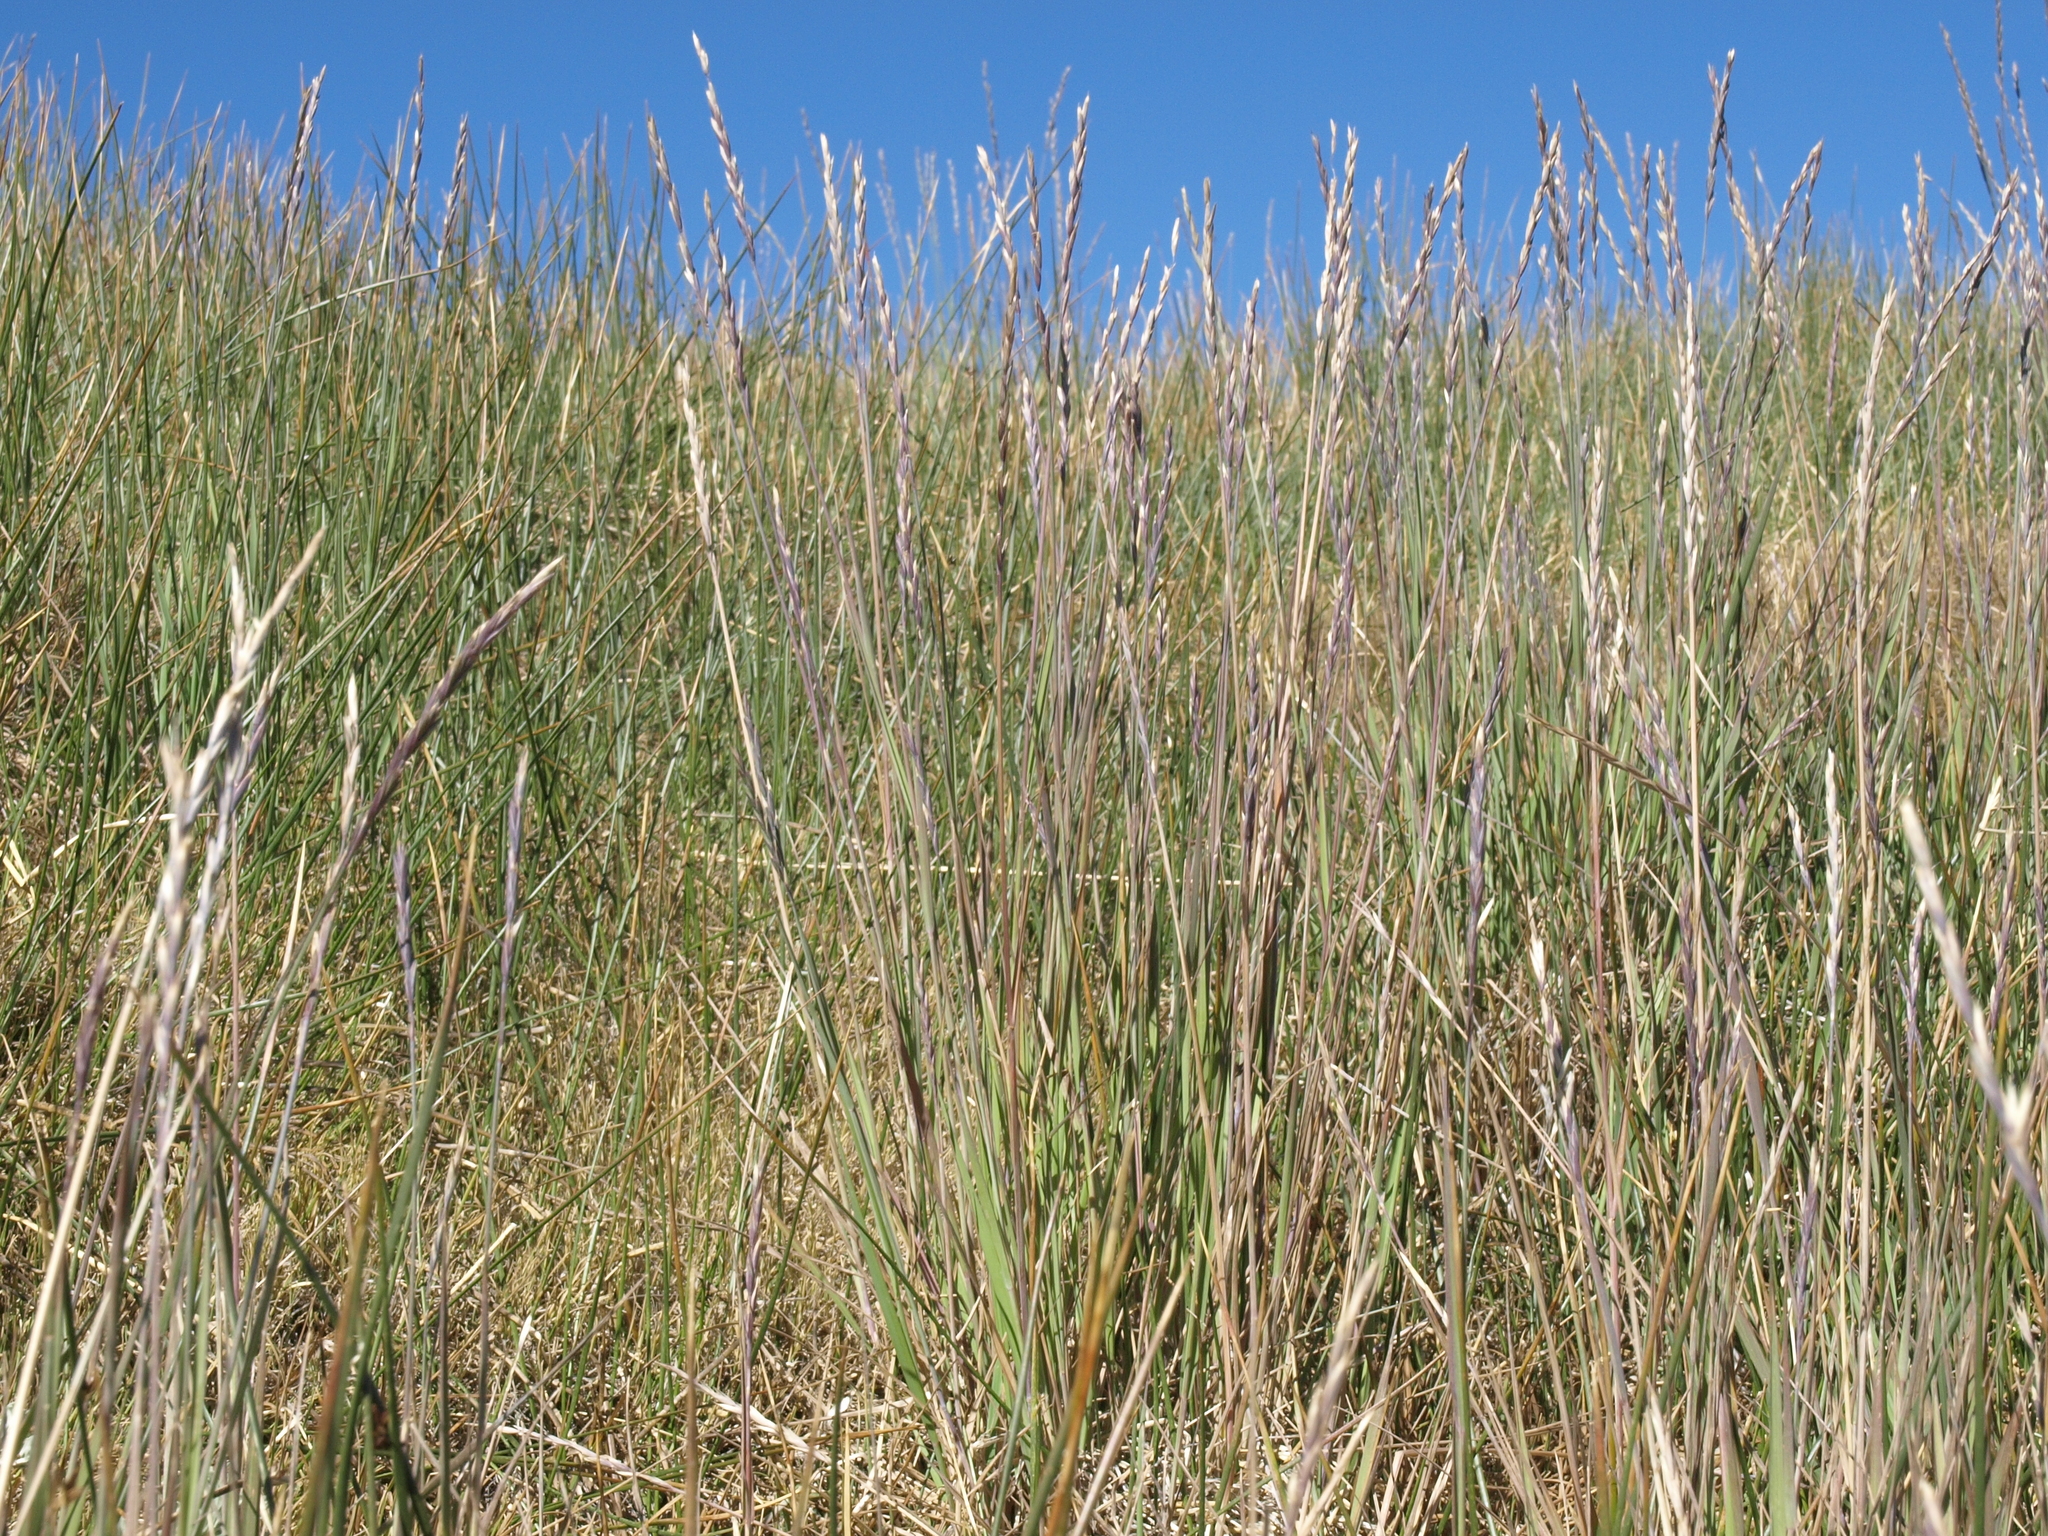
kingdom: Plantae
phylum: Tracheophyta
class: Liliopsida
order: Poales
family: Poaceae
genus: Elymus
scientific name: Elymus violaceus
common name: Arctic wheatgrass
